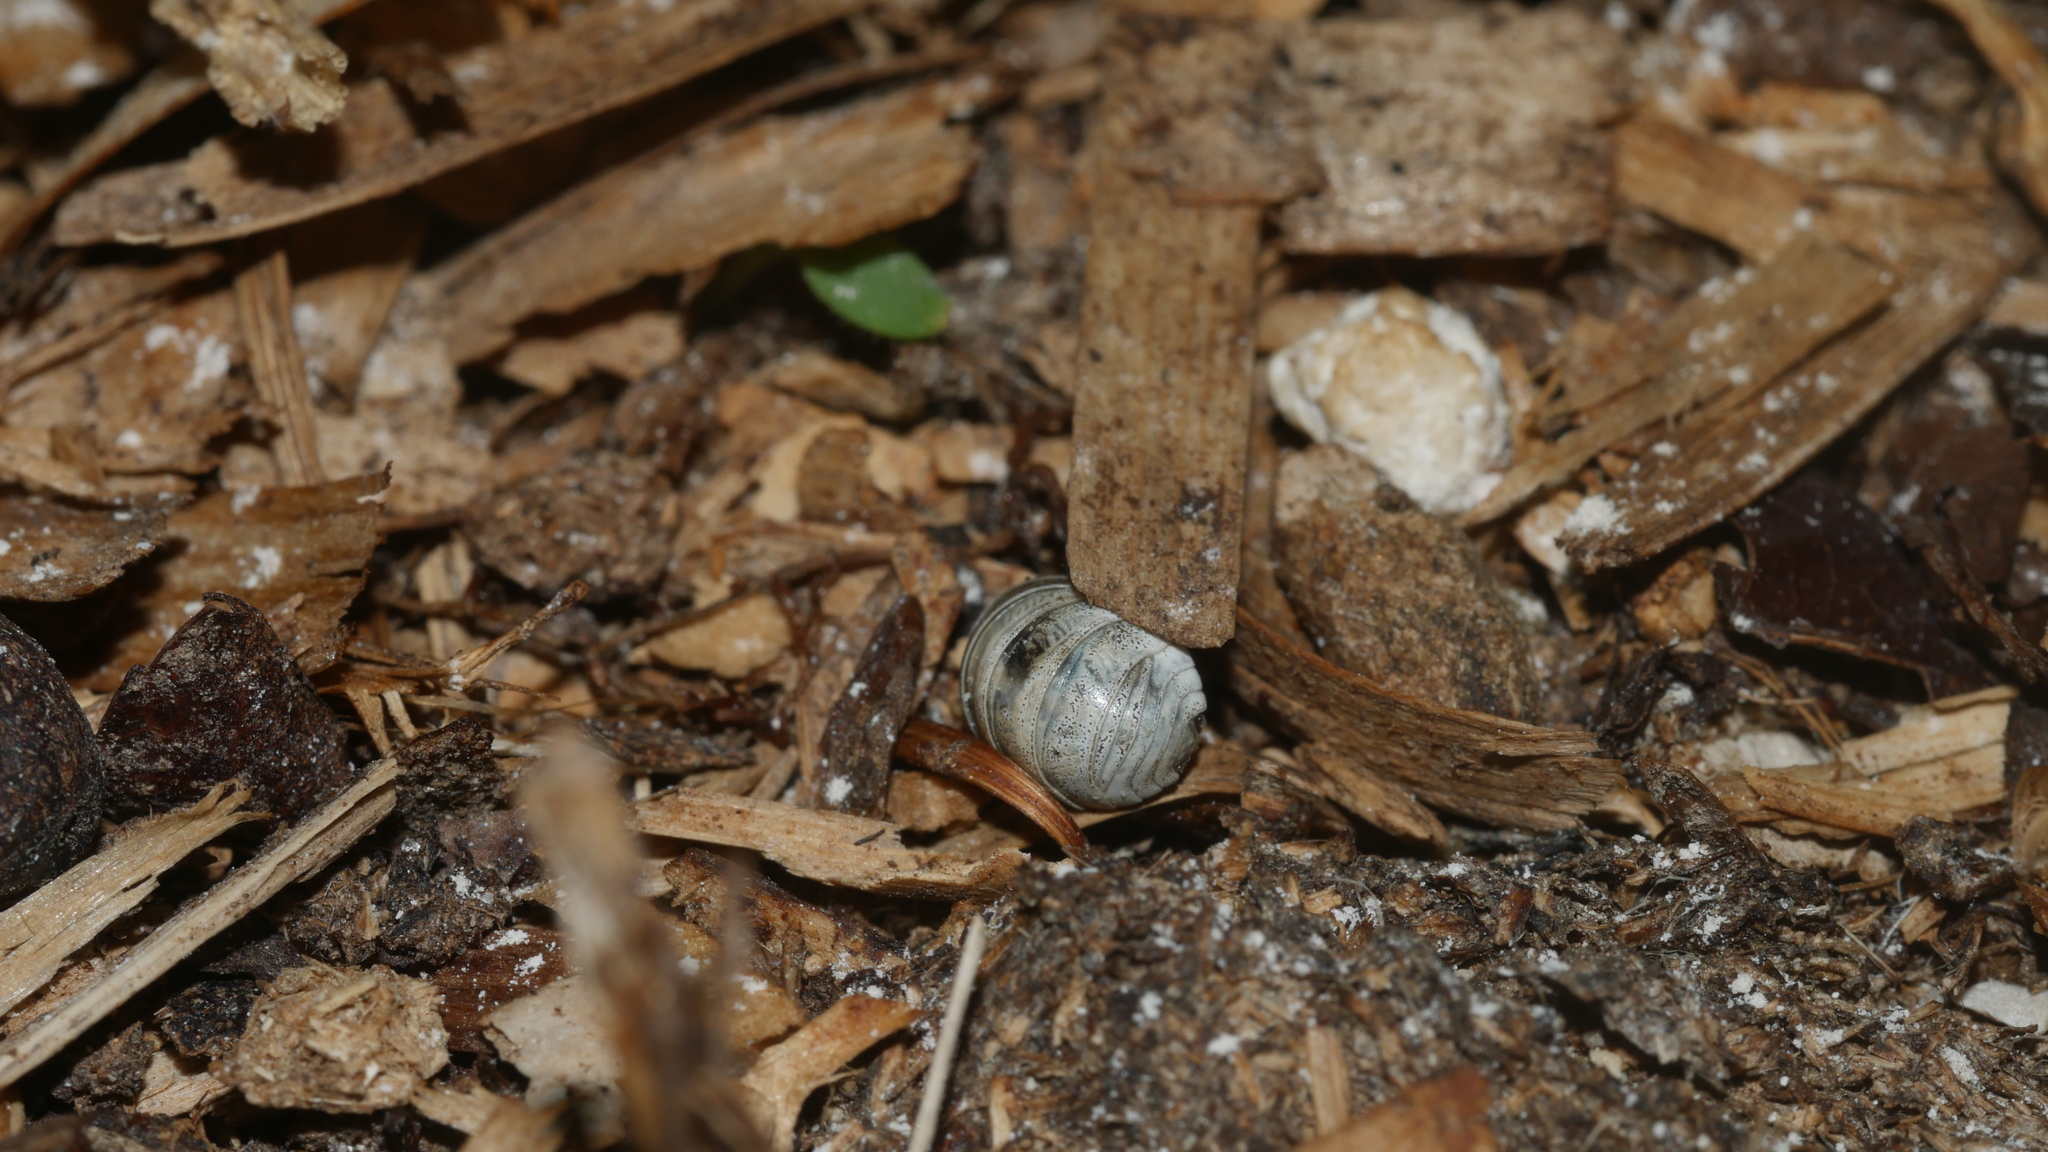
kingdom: Animalia
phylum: Arthropoda
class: Malacostraca
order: Isopoda
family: Armadillidiidae
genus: Armadillidium
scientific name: Armadillidium vulgare
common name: Common pill woodlouse
